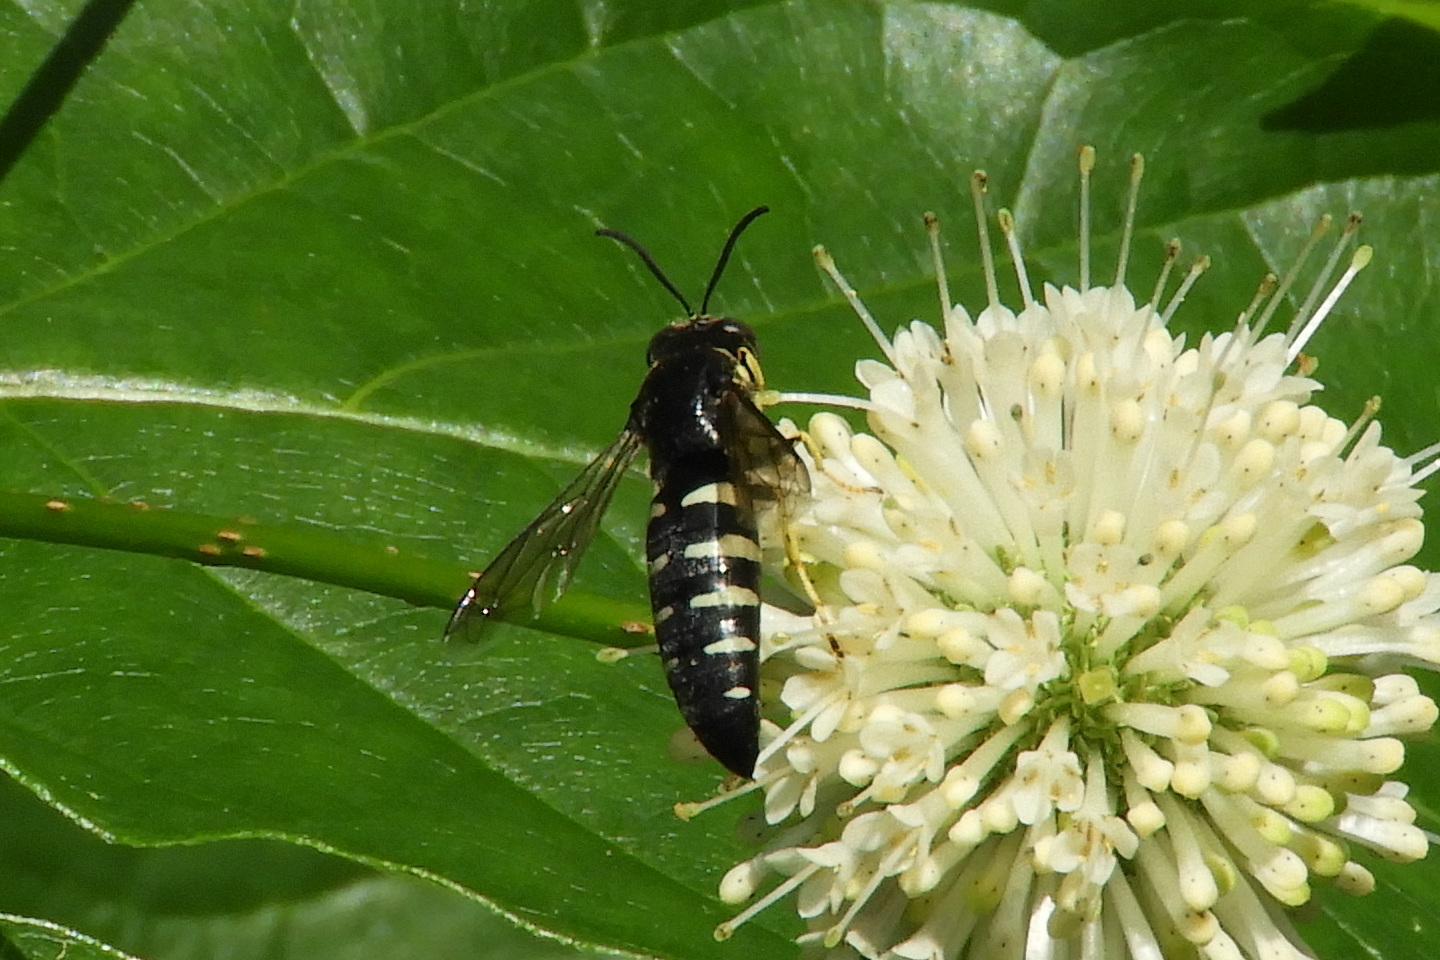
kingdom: Animalia
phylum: Arthropoda
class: Insecta
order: Hymenoptera
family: Crabronidae
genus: Bicyrtes
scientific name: Bicyrtes quadrifasciatus
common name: Four-banded stink bug hunter wasp
